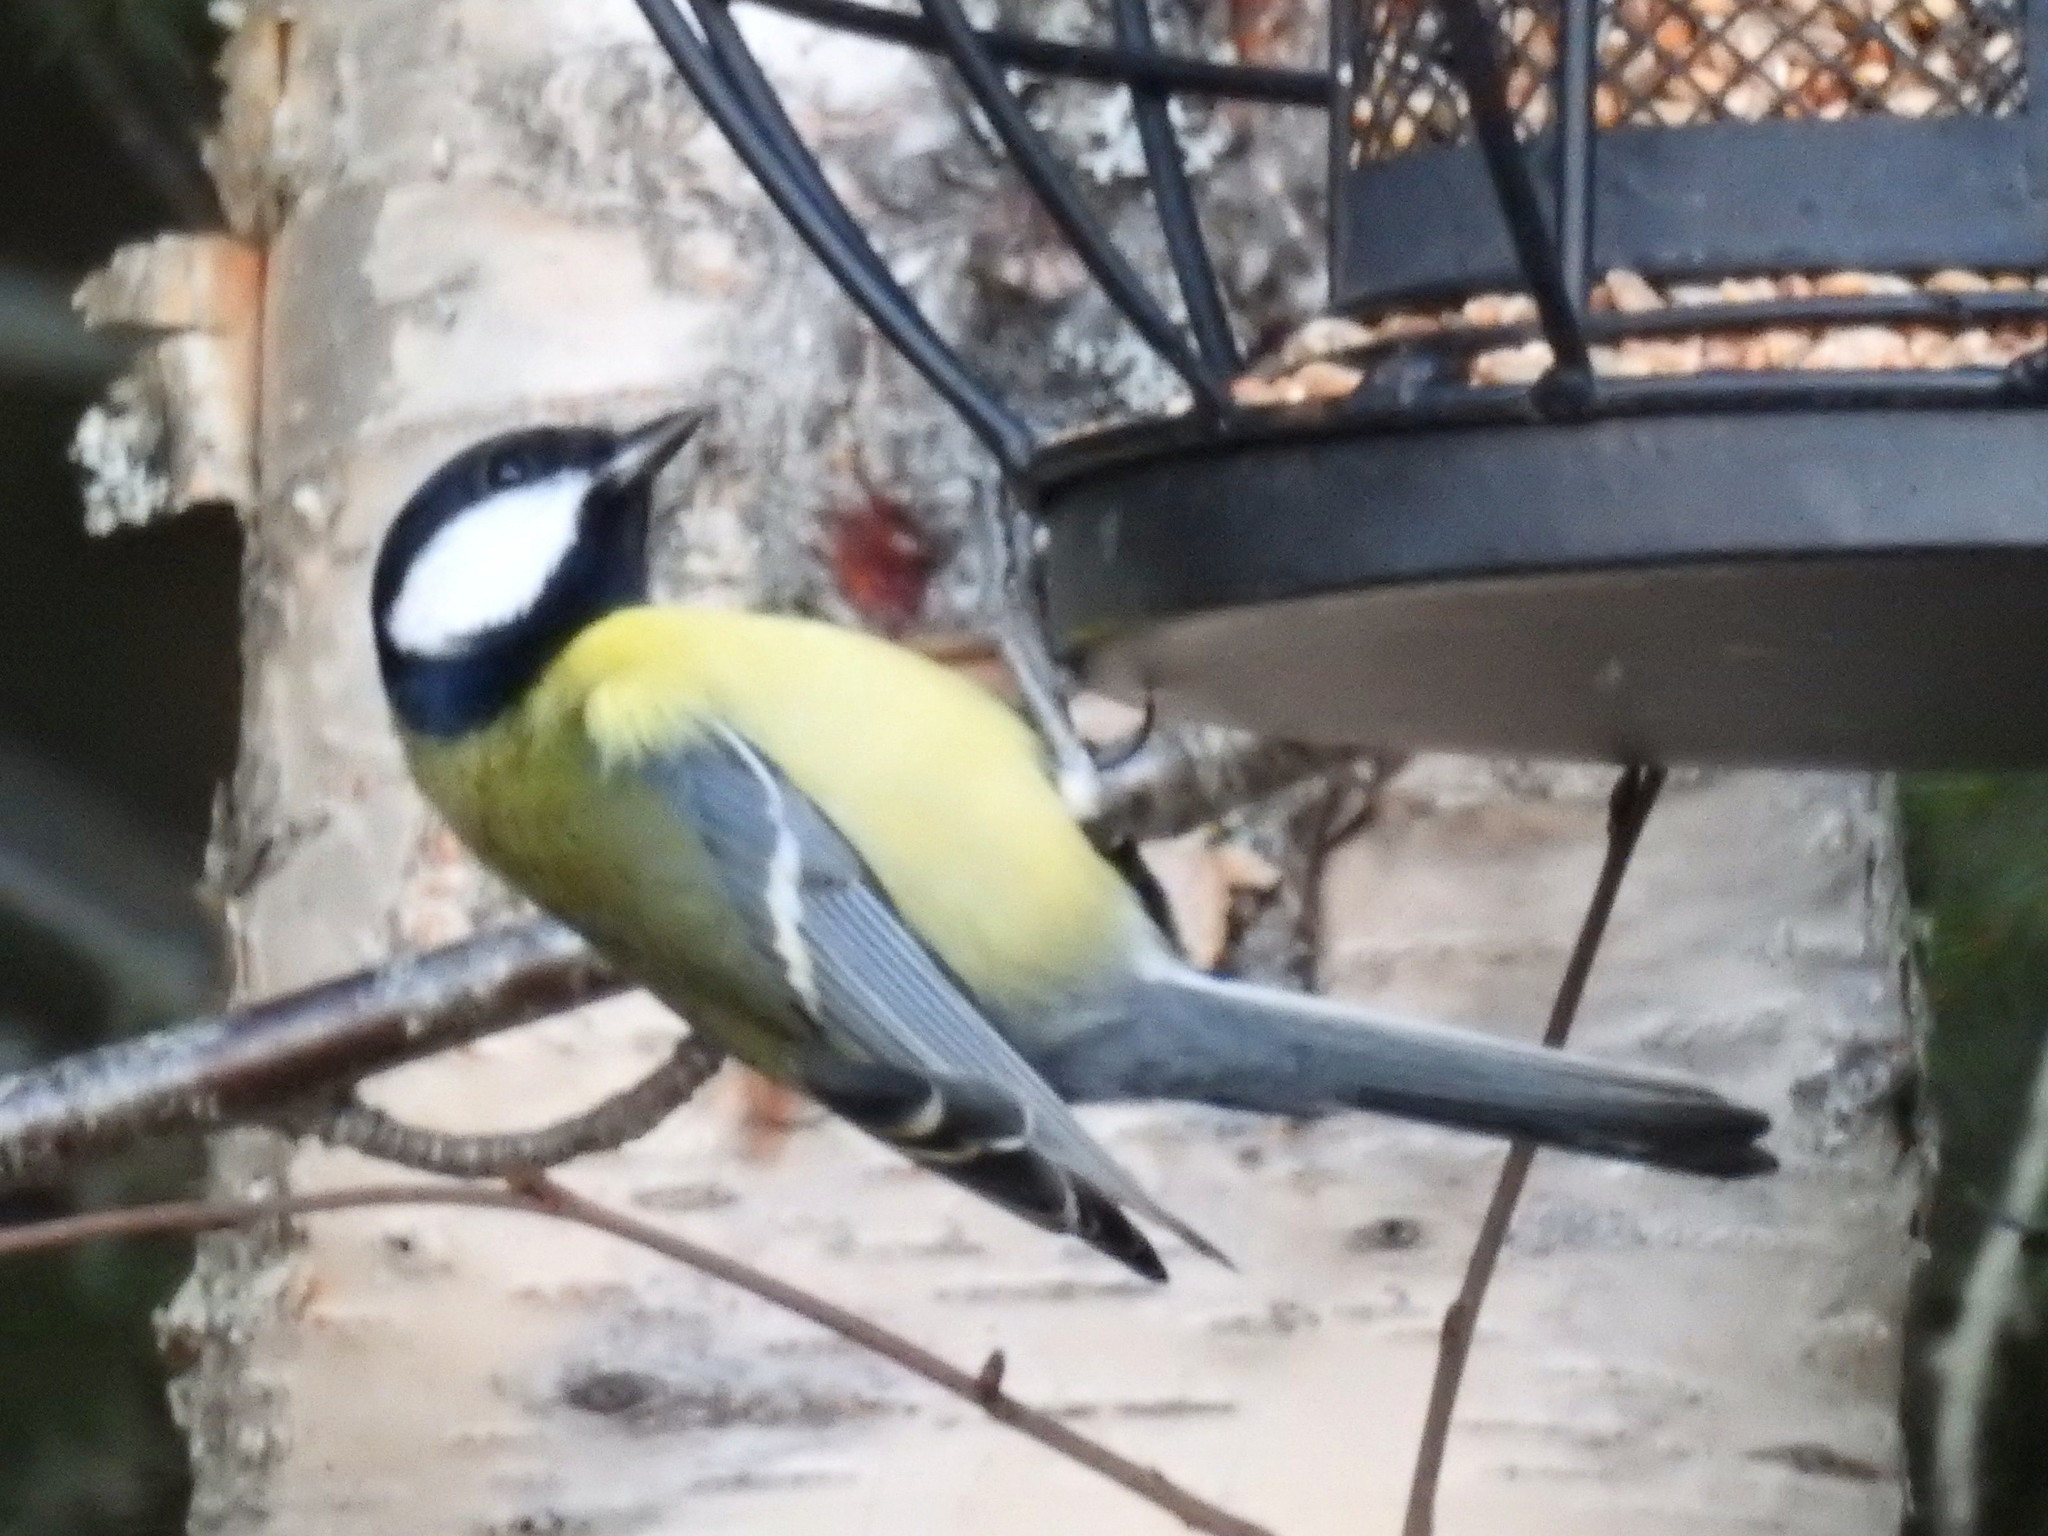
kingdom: Animalia
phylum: Chordata
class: Aves
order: Passeriformes
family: Paridae
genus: Parus
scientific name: Parus major
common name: Great tit
